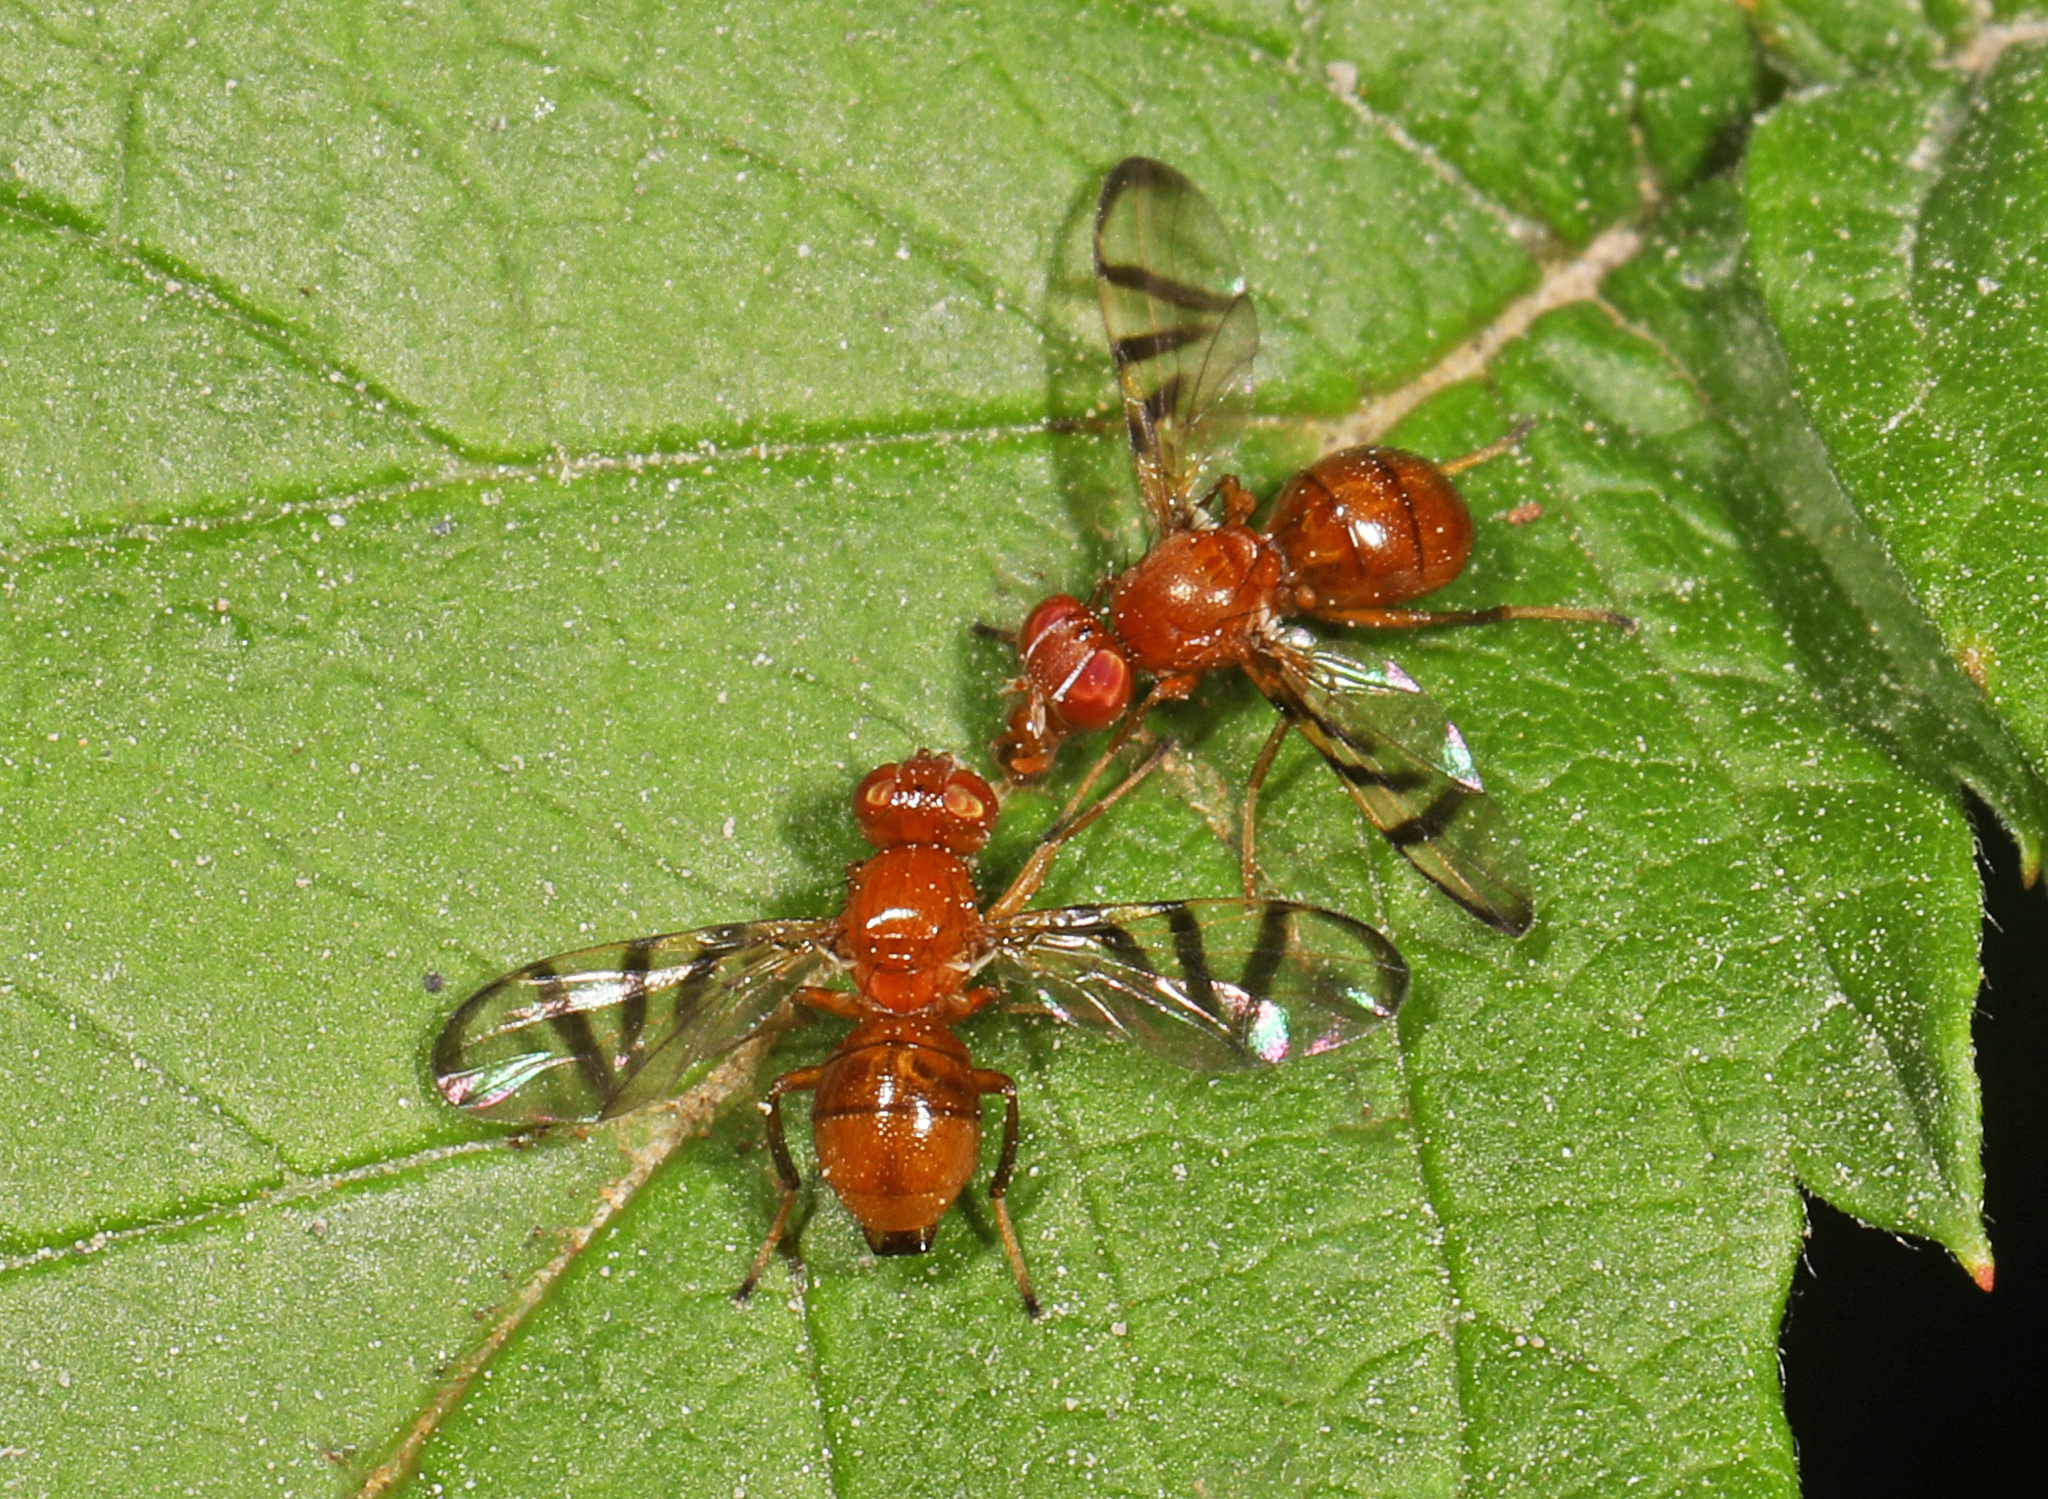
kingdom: Animalia
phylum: Arthropoda
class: Insecta
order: Diptera
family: Platystomatidae
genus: Rivellia
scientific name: Rivellia munda
